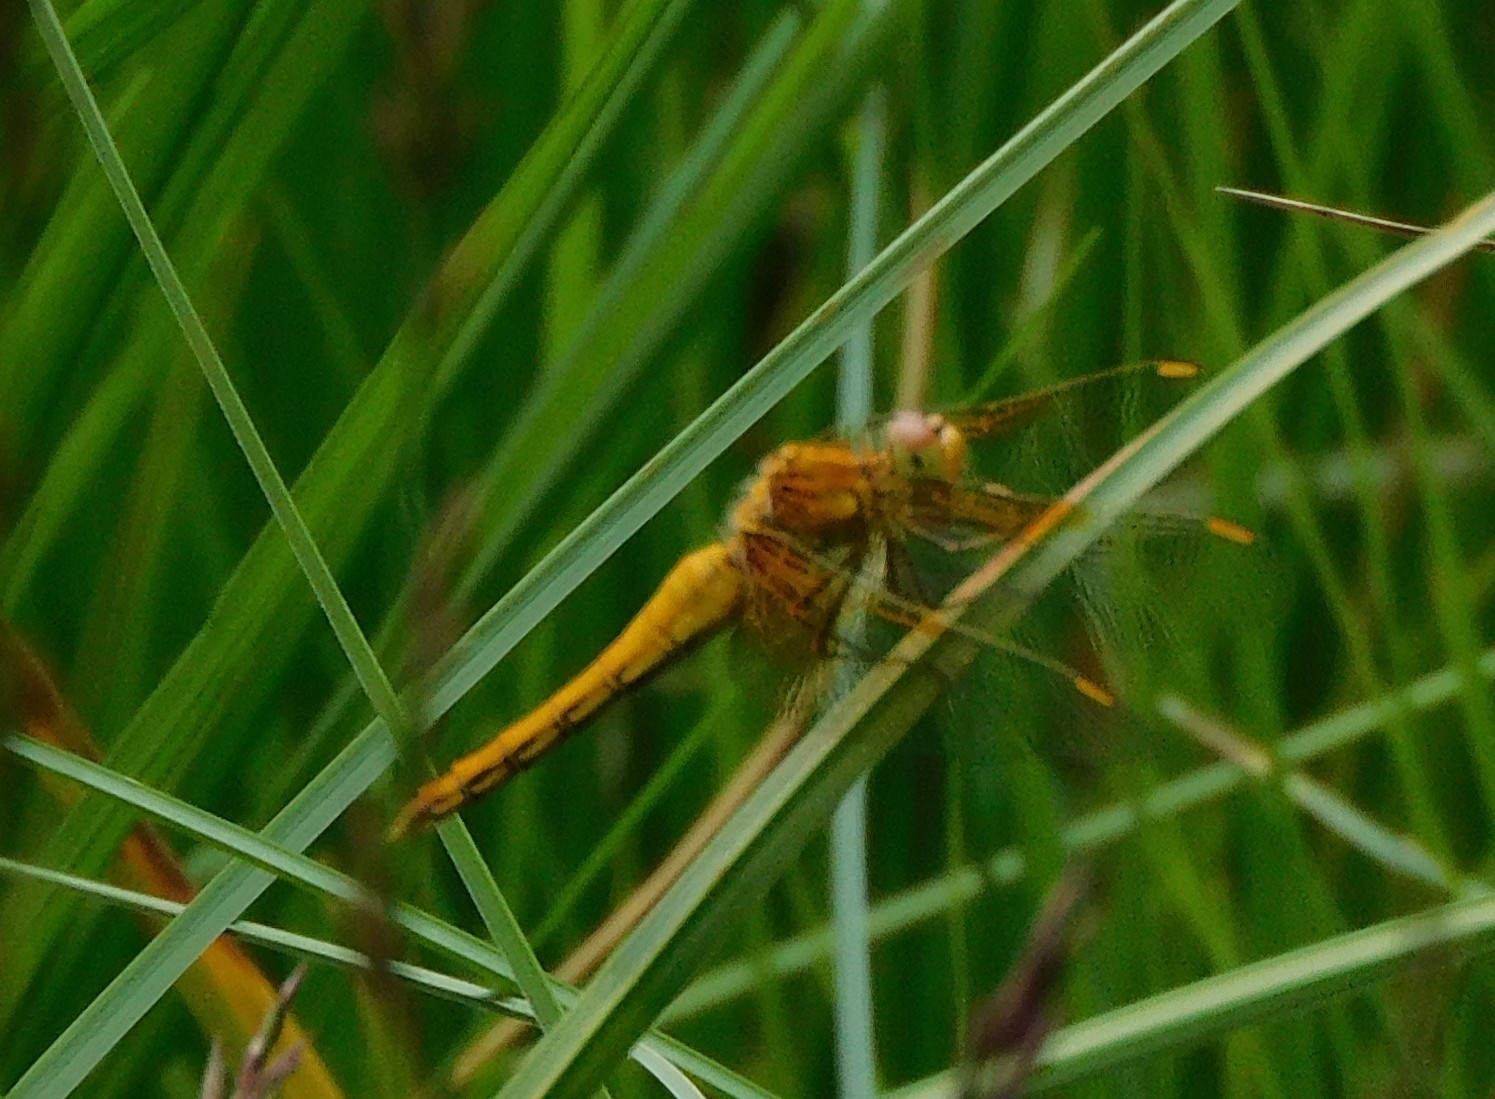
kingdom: Animalia
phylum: Arthropoda
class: Insecta
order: Odonata
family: Libellulidae
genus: Sympetrum
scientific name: Sympetrum flaveolum
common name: Yellow-winged darter
